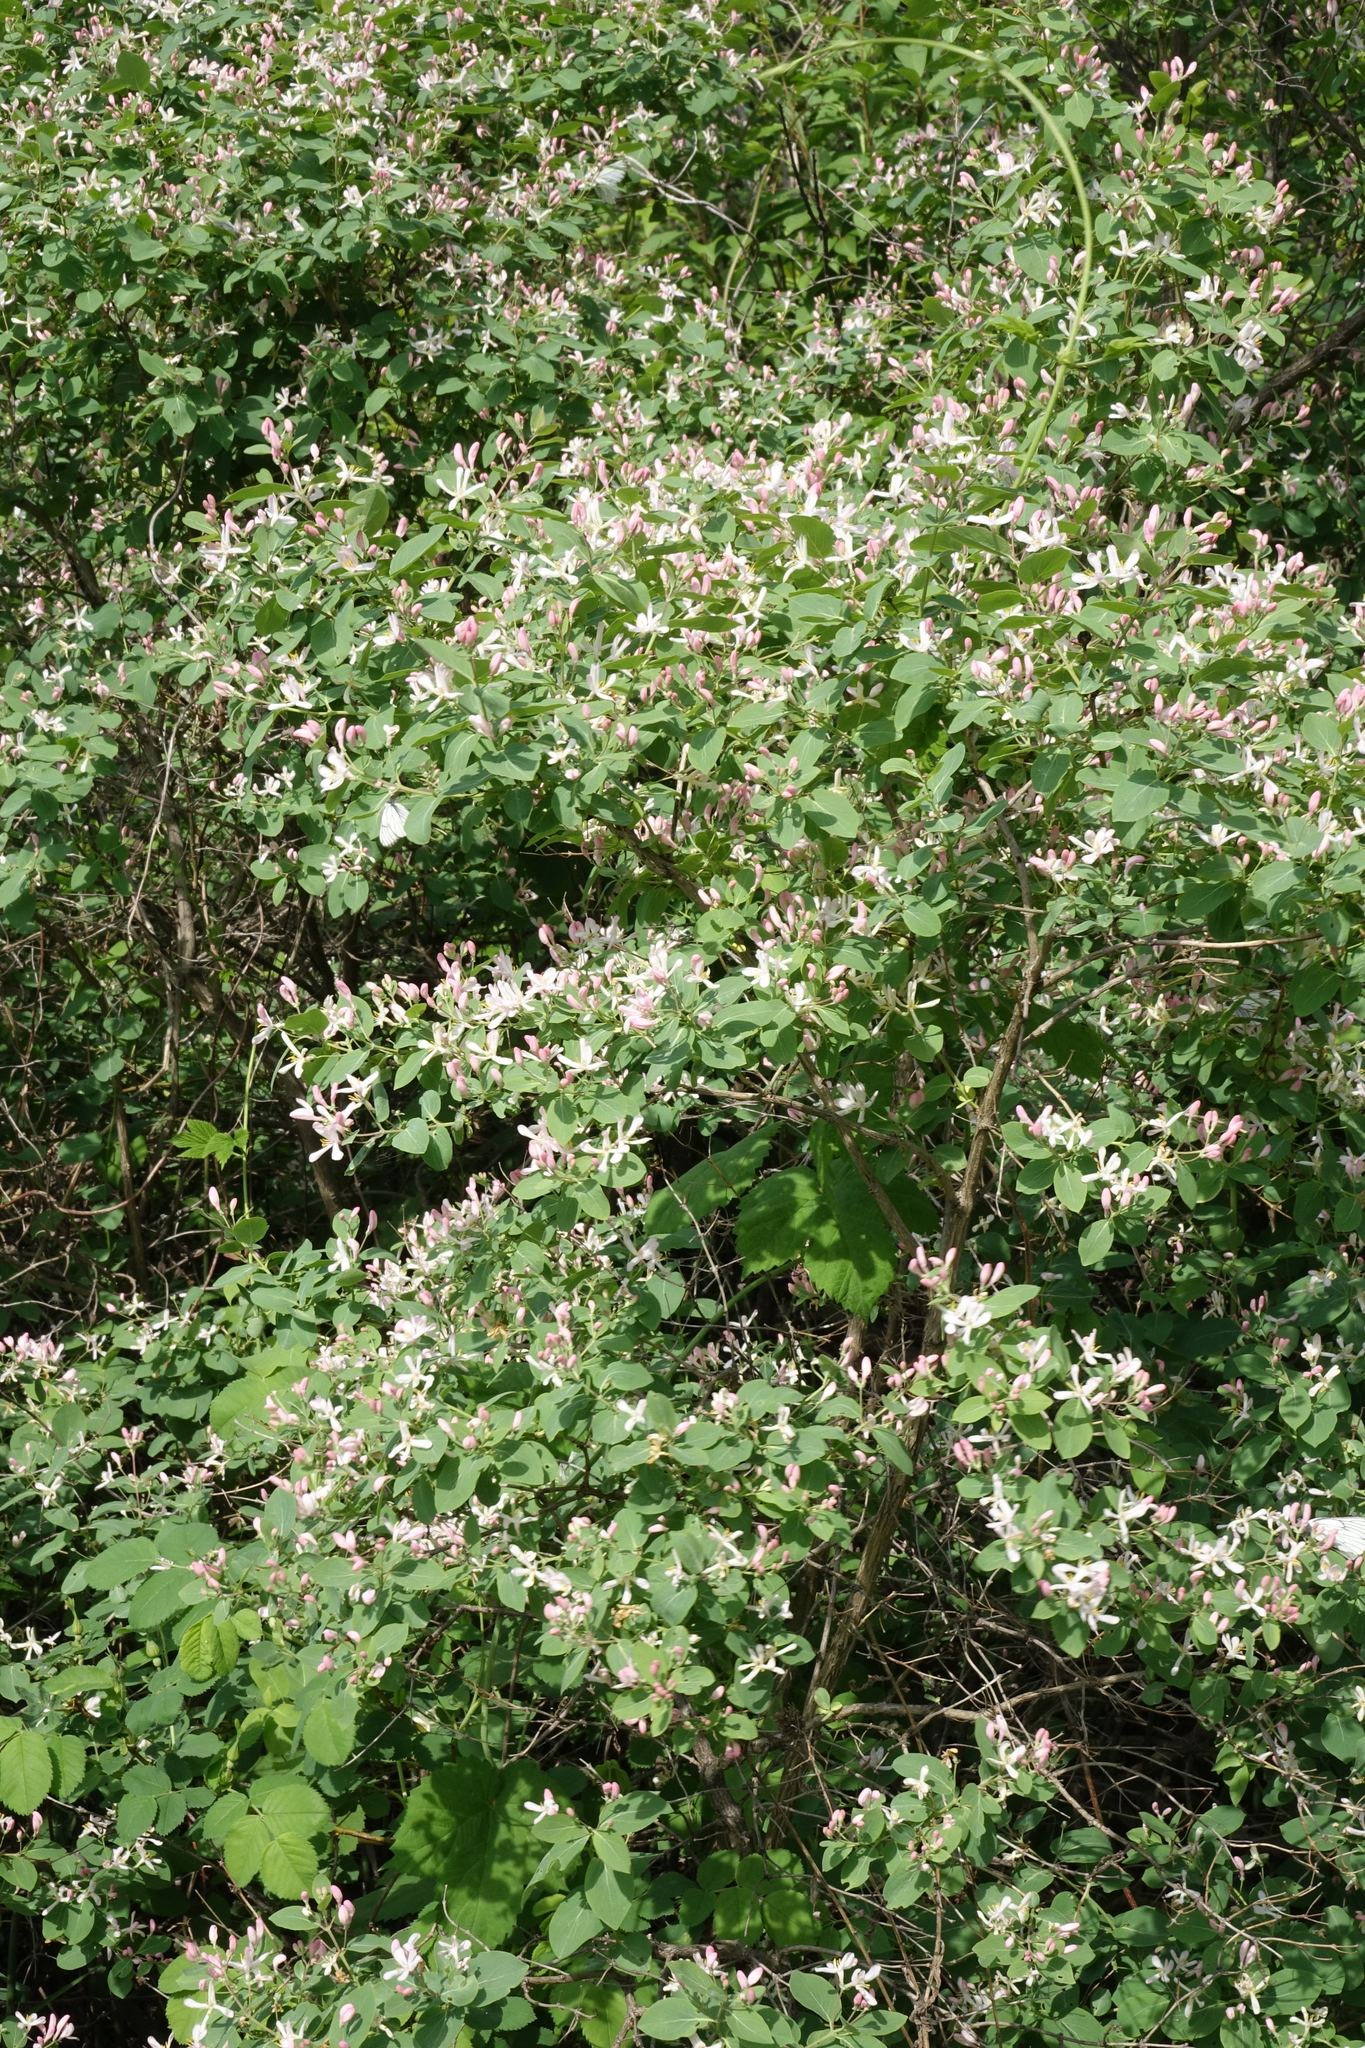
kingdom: Plantae
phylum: Tracheophyta
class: Magnoliopsida
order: Dipsacales
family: Caprifoliaceae
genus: Lonicera
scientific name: Lonicera tatarica
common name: Tatarian honeysuckle
